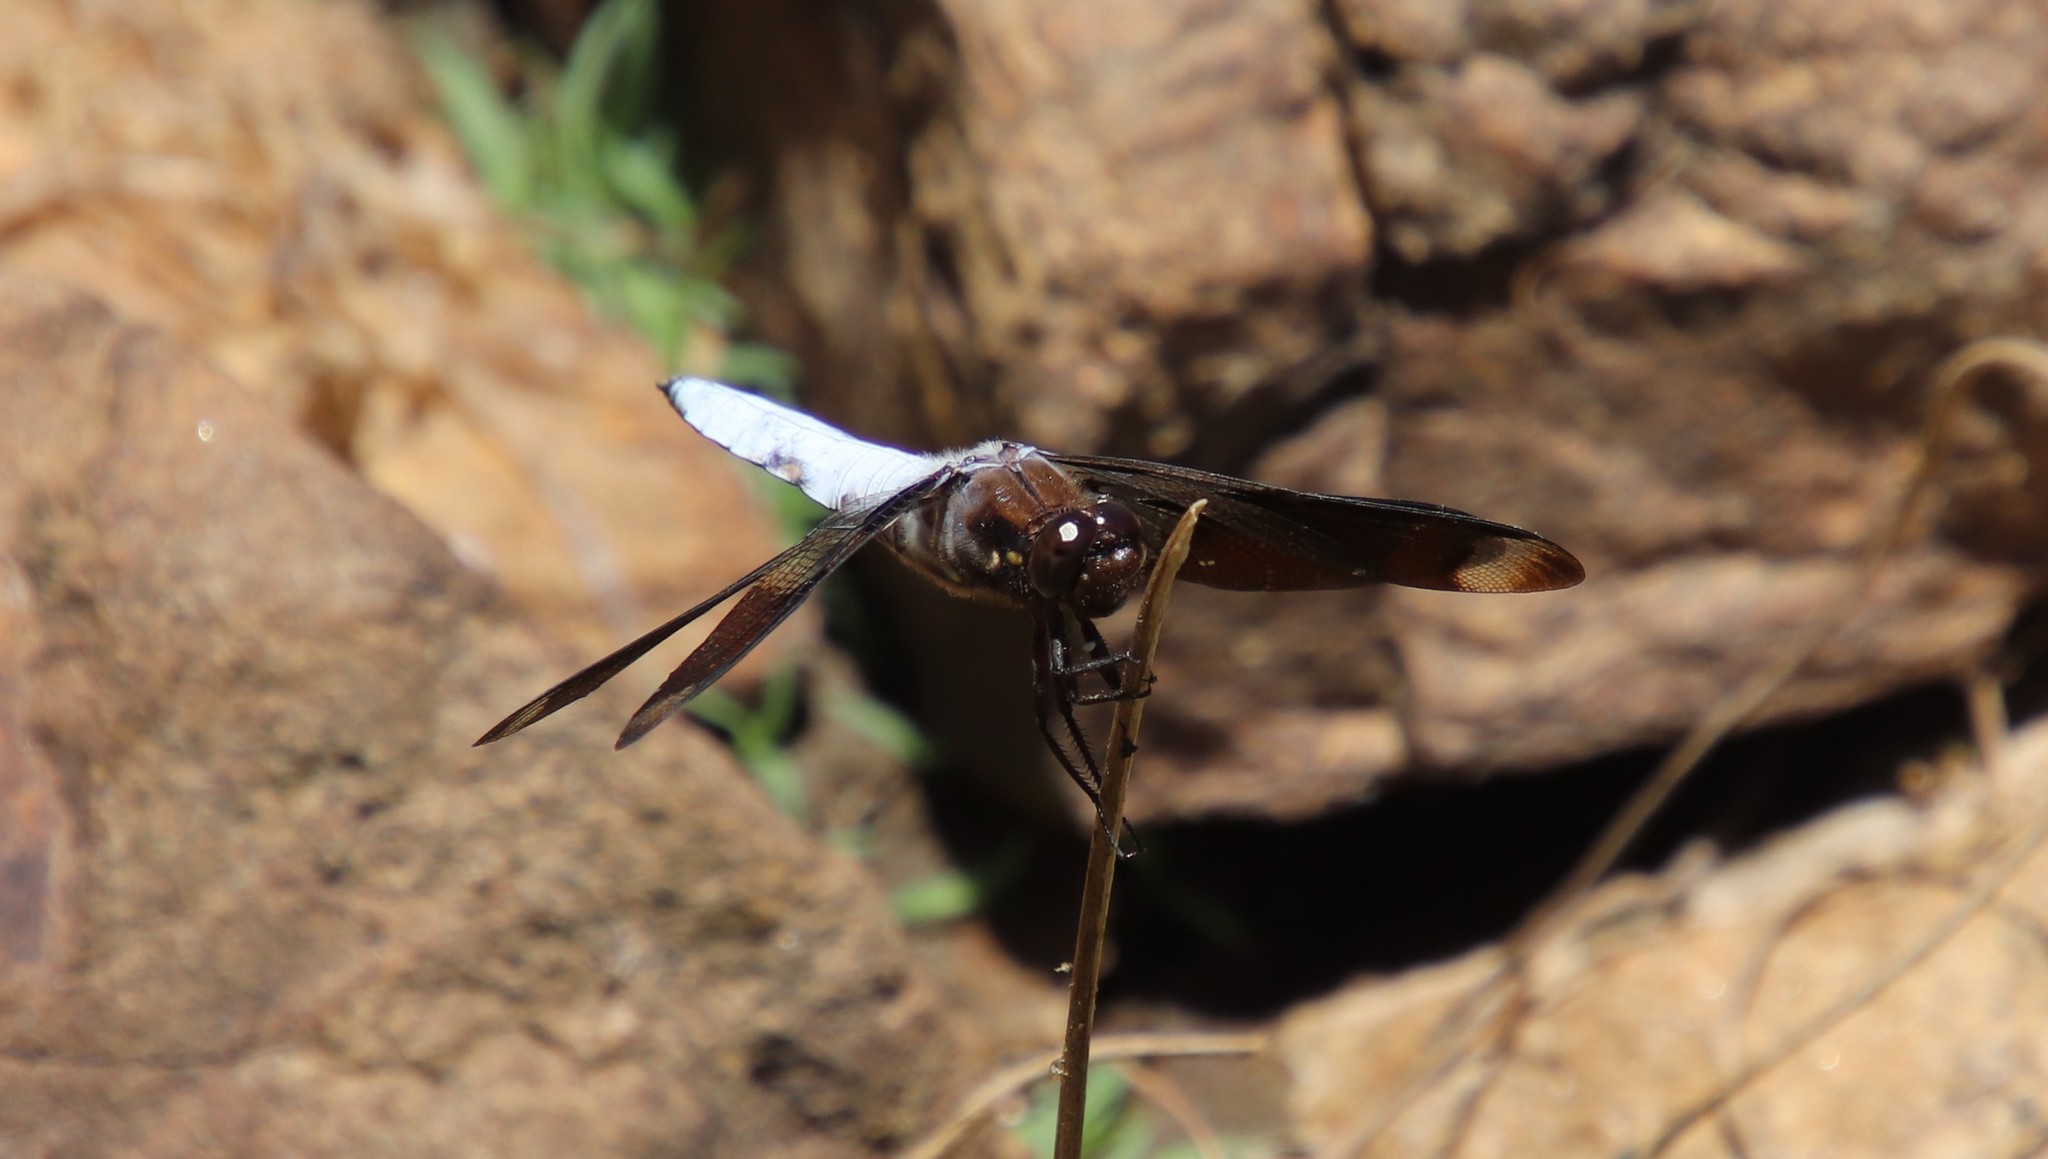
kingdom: Animalia
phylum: Arthropoda
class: Insecta
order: Odonata
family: Libellulidae
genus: Plathemis
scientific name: Plathemis lydia
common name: Common whitetail
